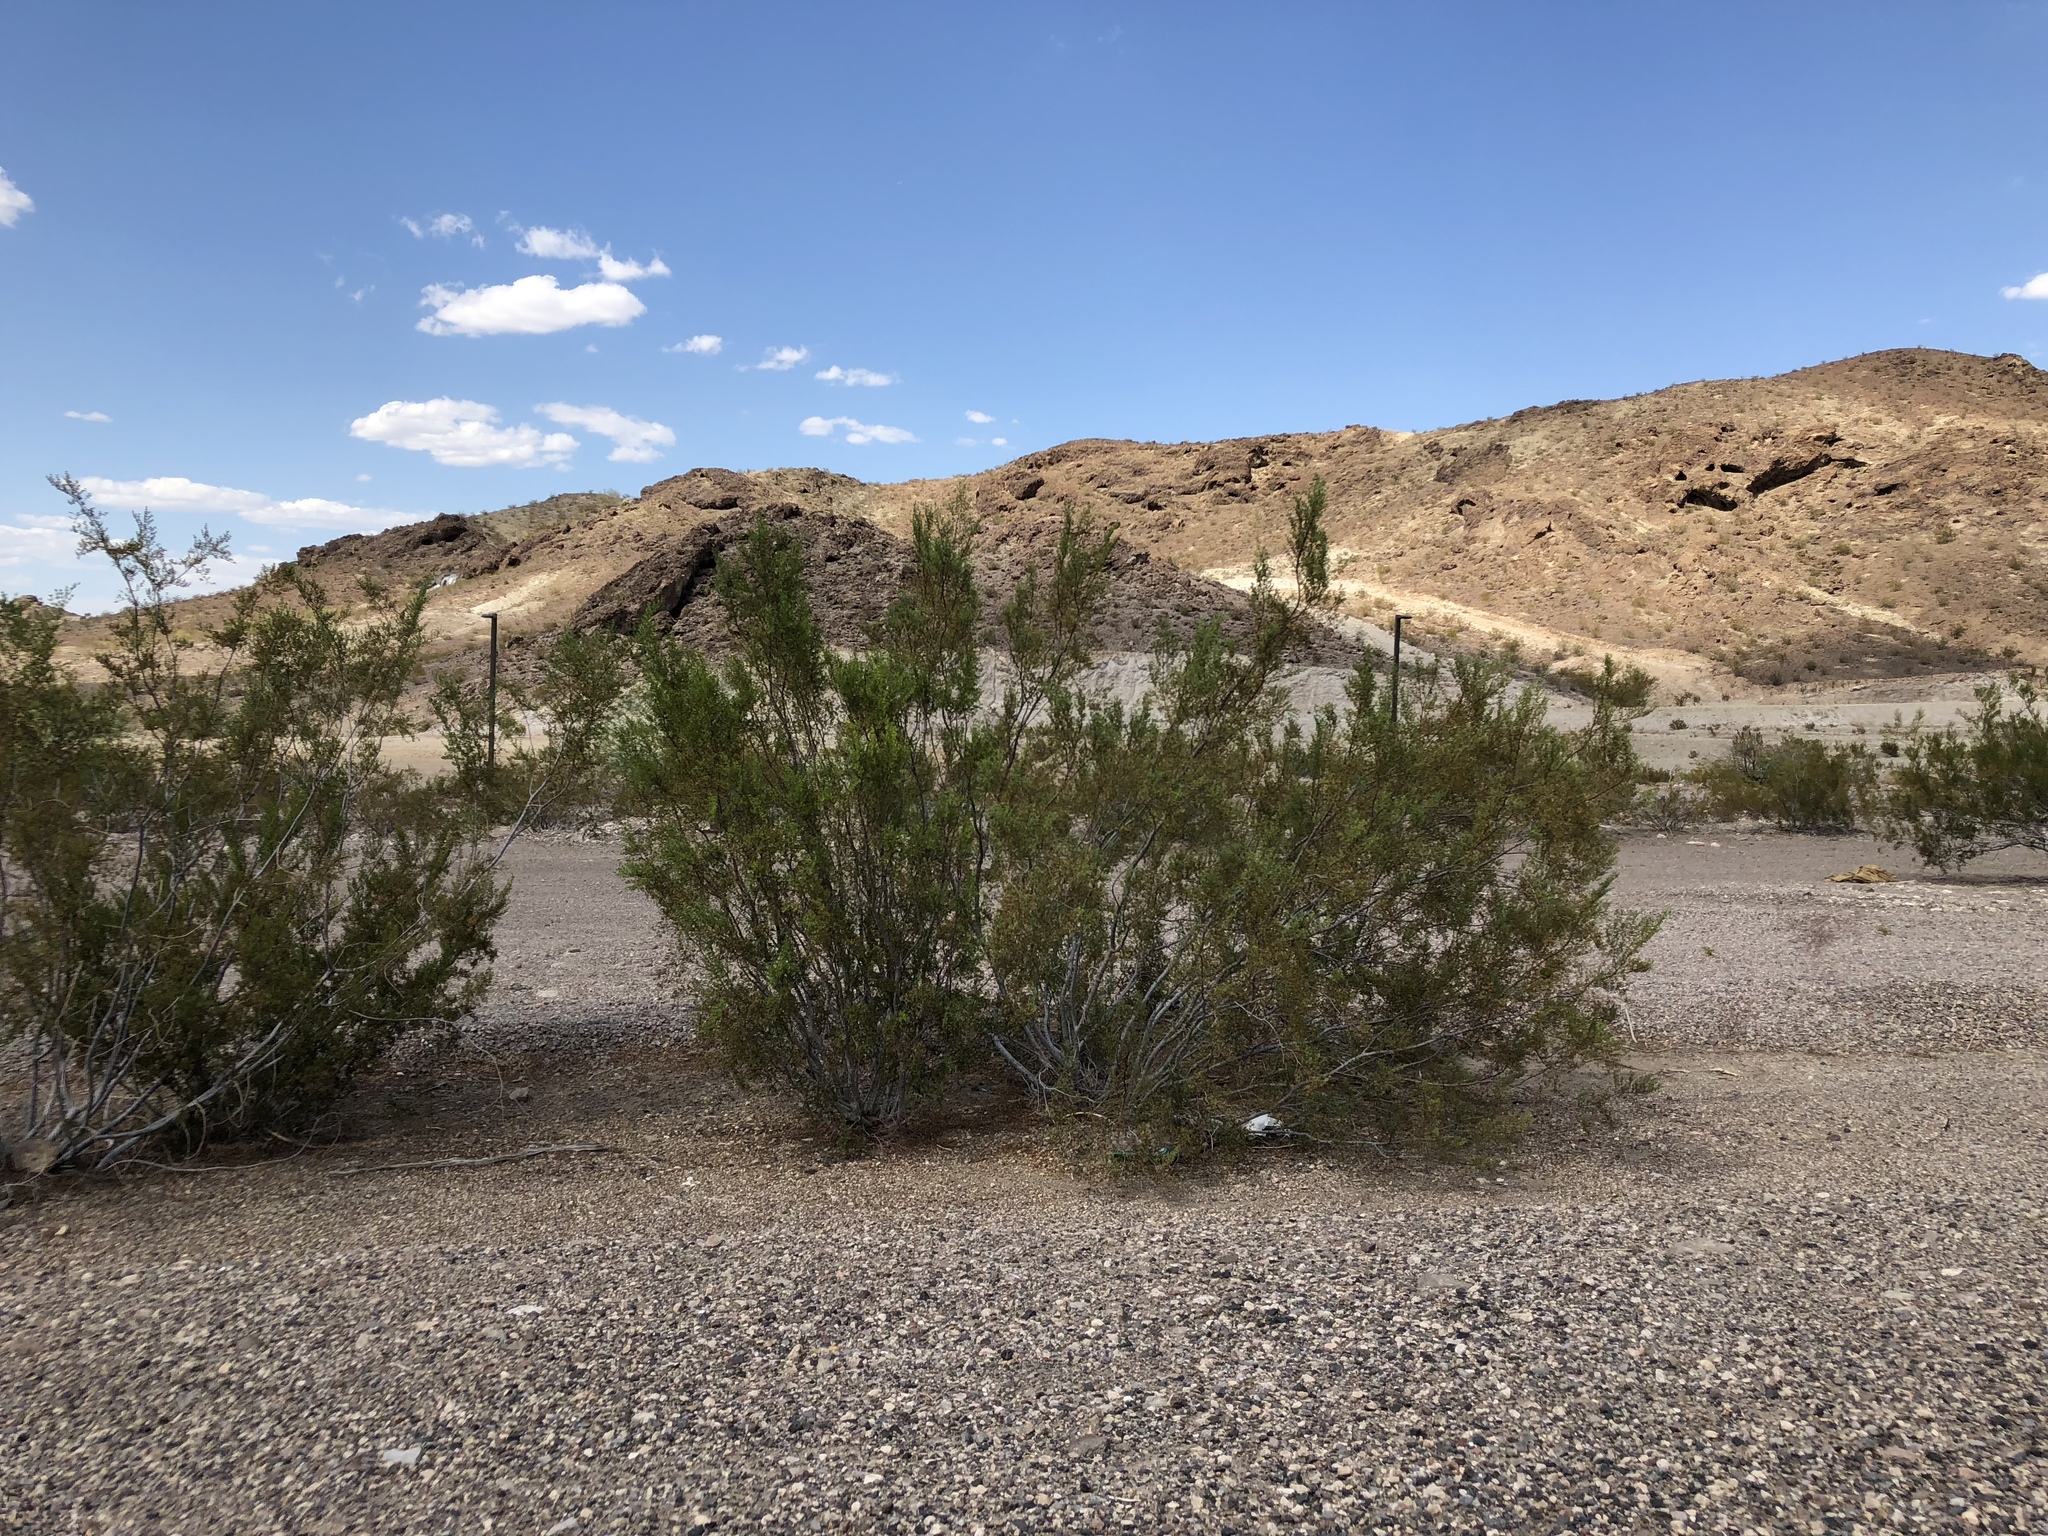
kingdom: Plantae
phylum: Tracheophyta
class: Magnoliopsida
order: Zygophyllales
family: Zygophyllaceae
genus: Larrea
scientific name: Larrea tridentata
